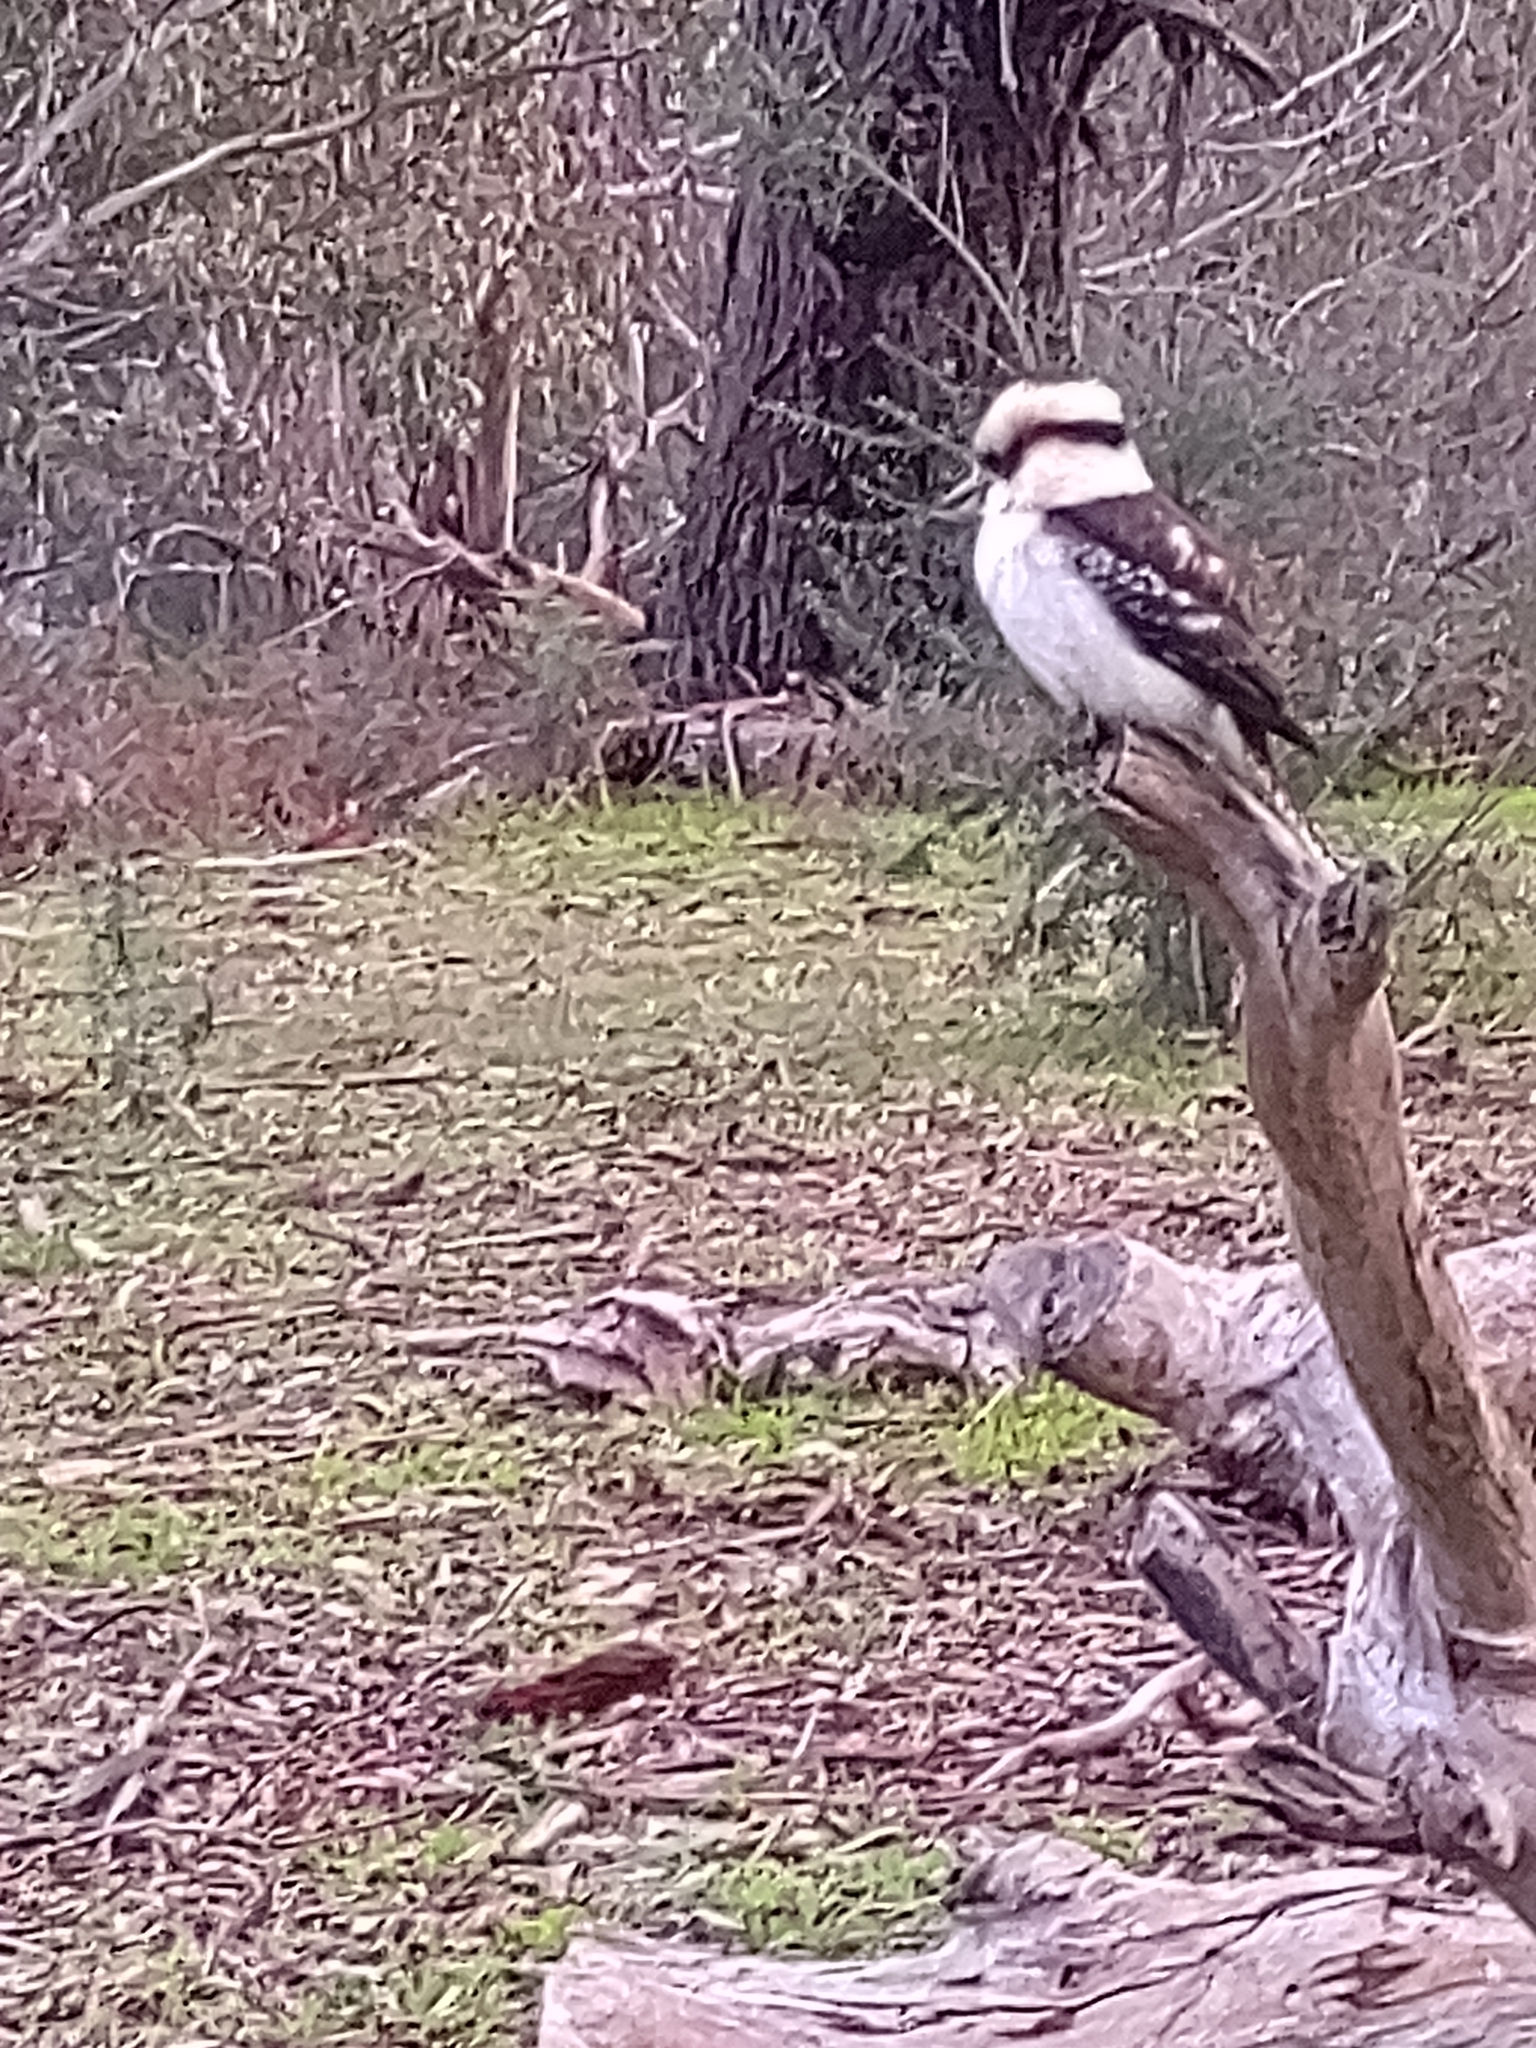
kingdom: Animalia
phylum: Chordata
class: Aves
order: Coraciiformes
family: Alcedinidae
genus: Dacelo
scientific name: Dacelo novaeguineae
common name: Laughing kookaburra
